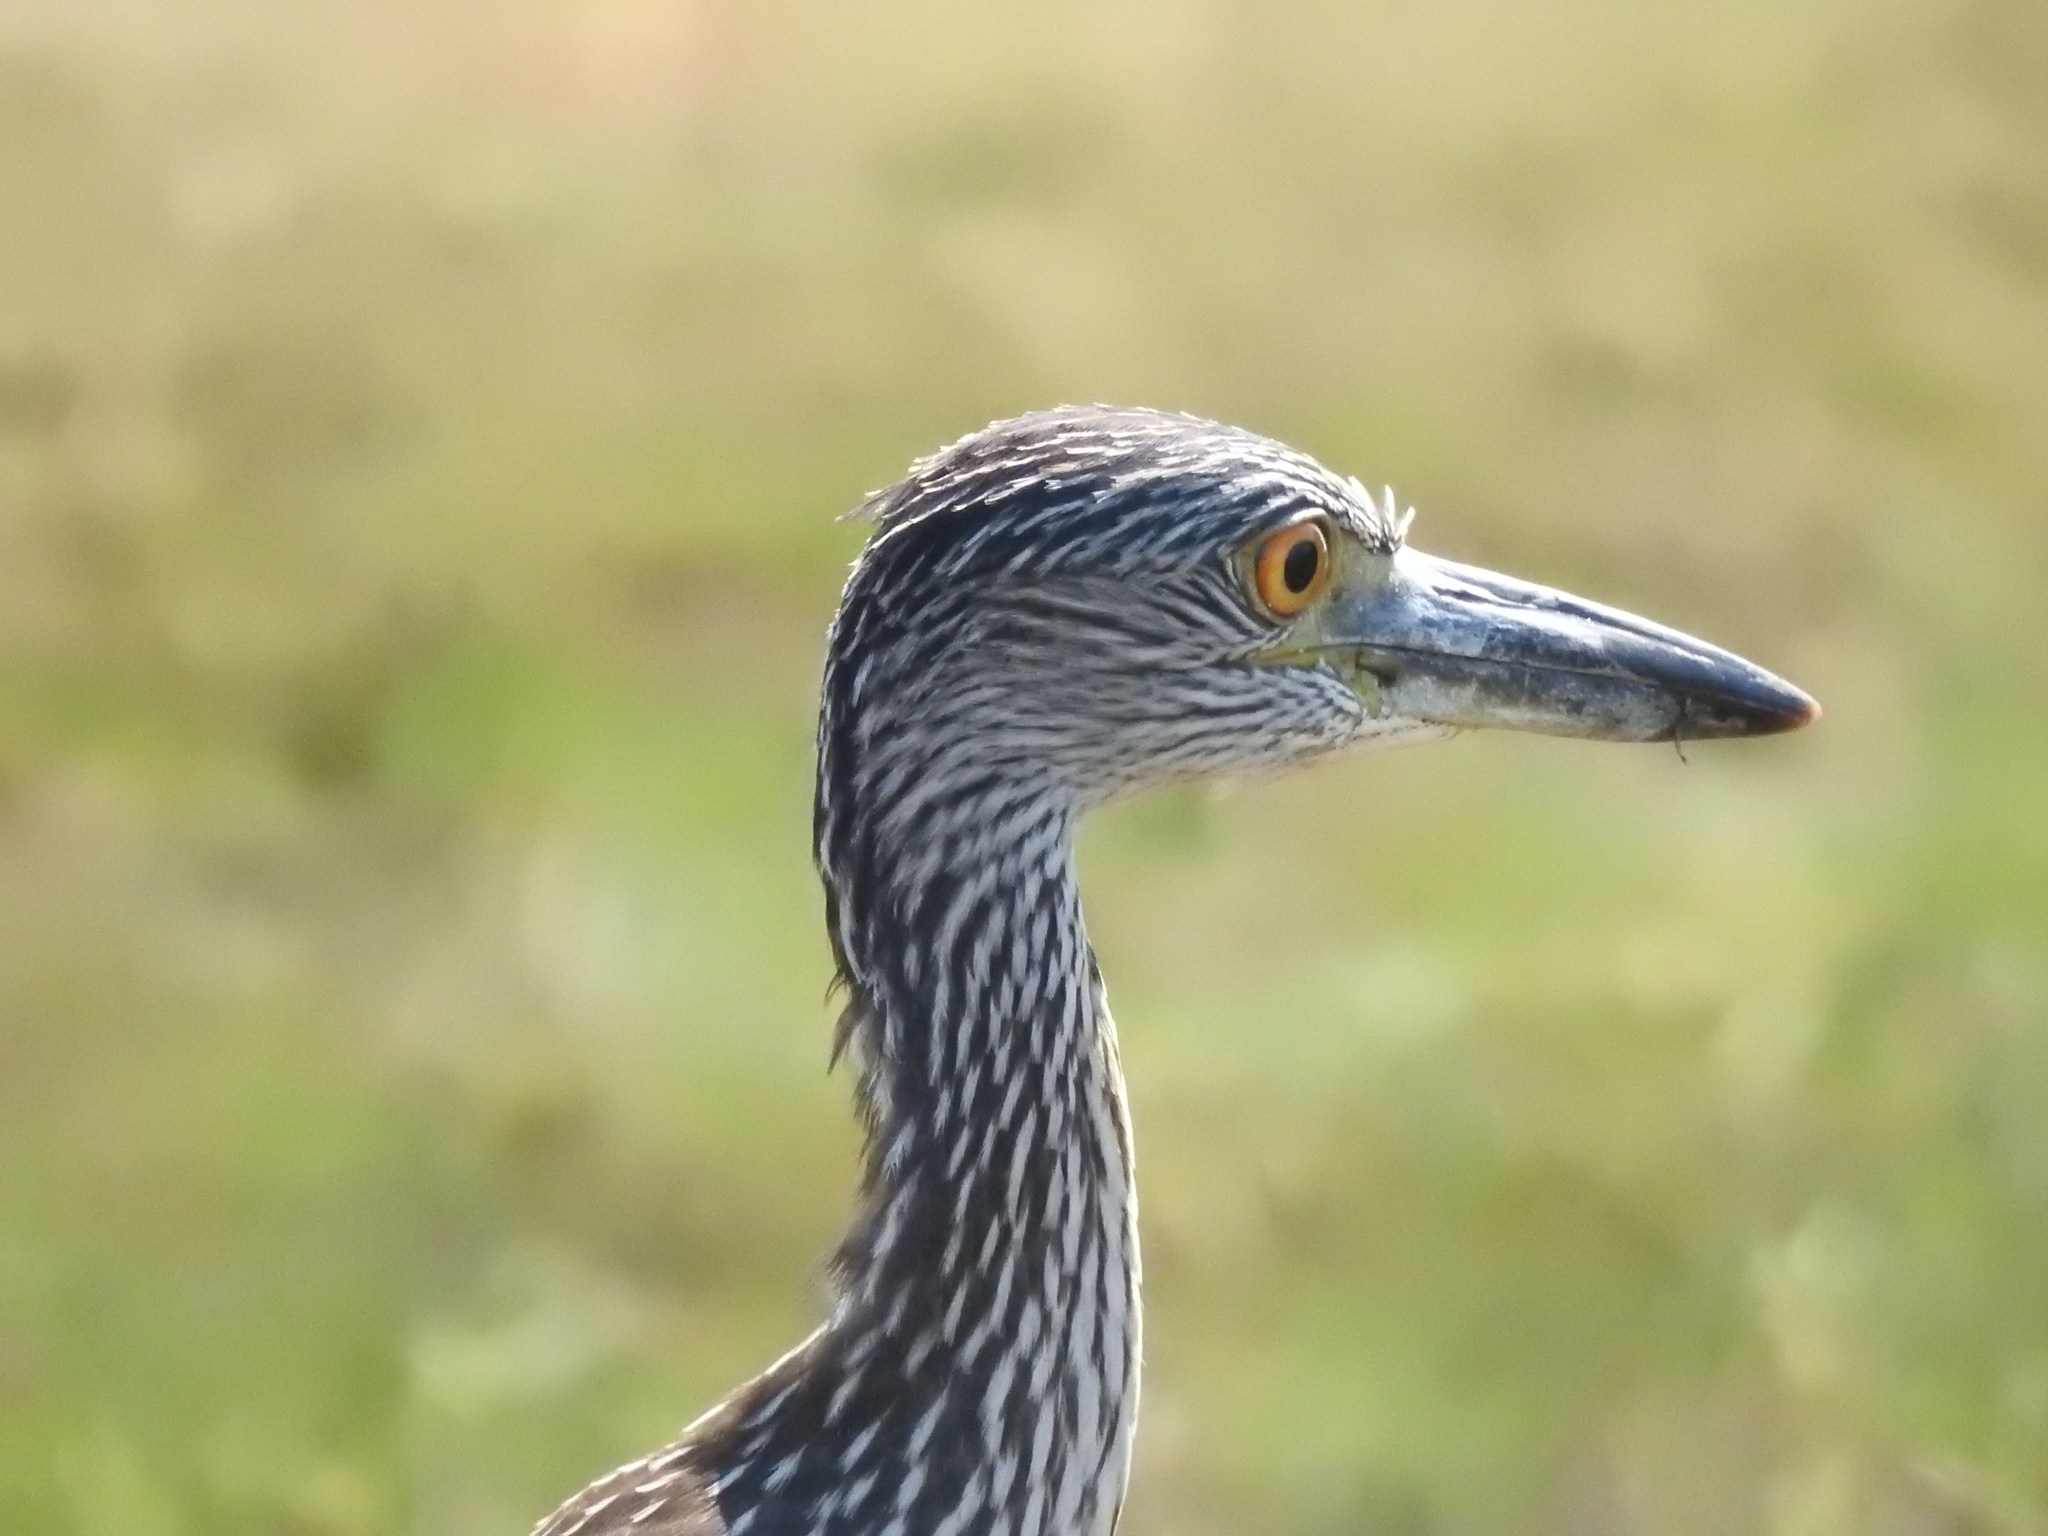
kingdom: Animalia
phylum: Chordata
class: Aves
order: Pelecaniformes
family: Ardeidae
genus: Nyctanassa
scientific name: Nyctanassa violacea
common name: Yellow-crowned night heron
